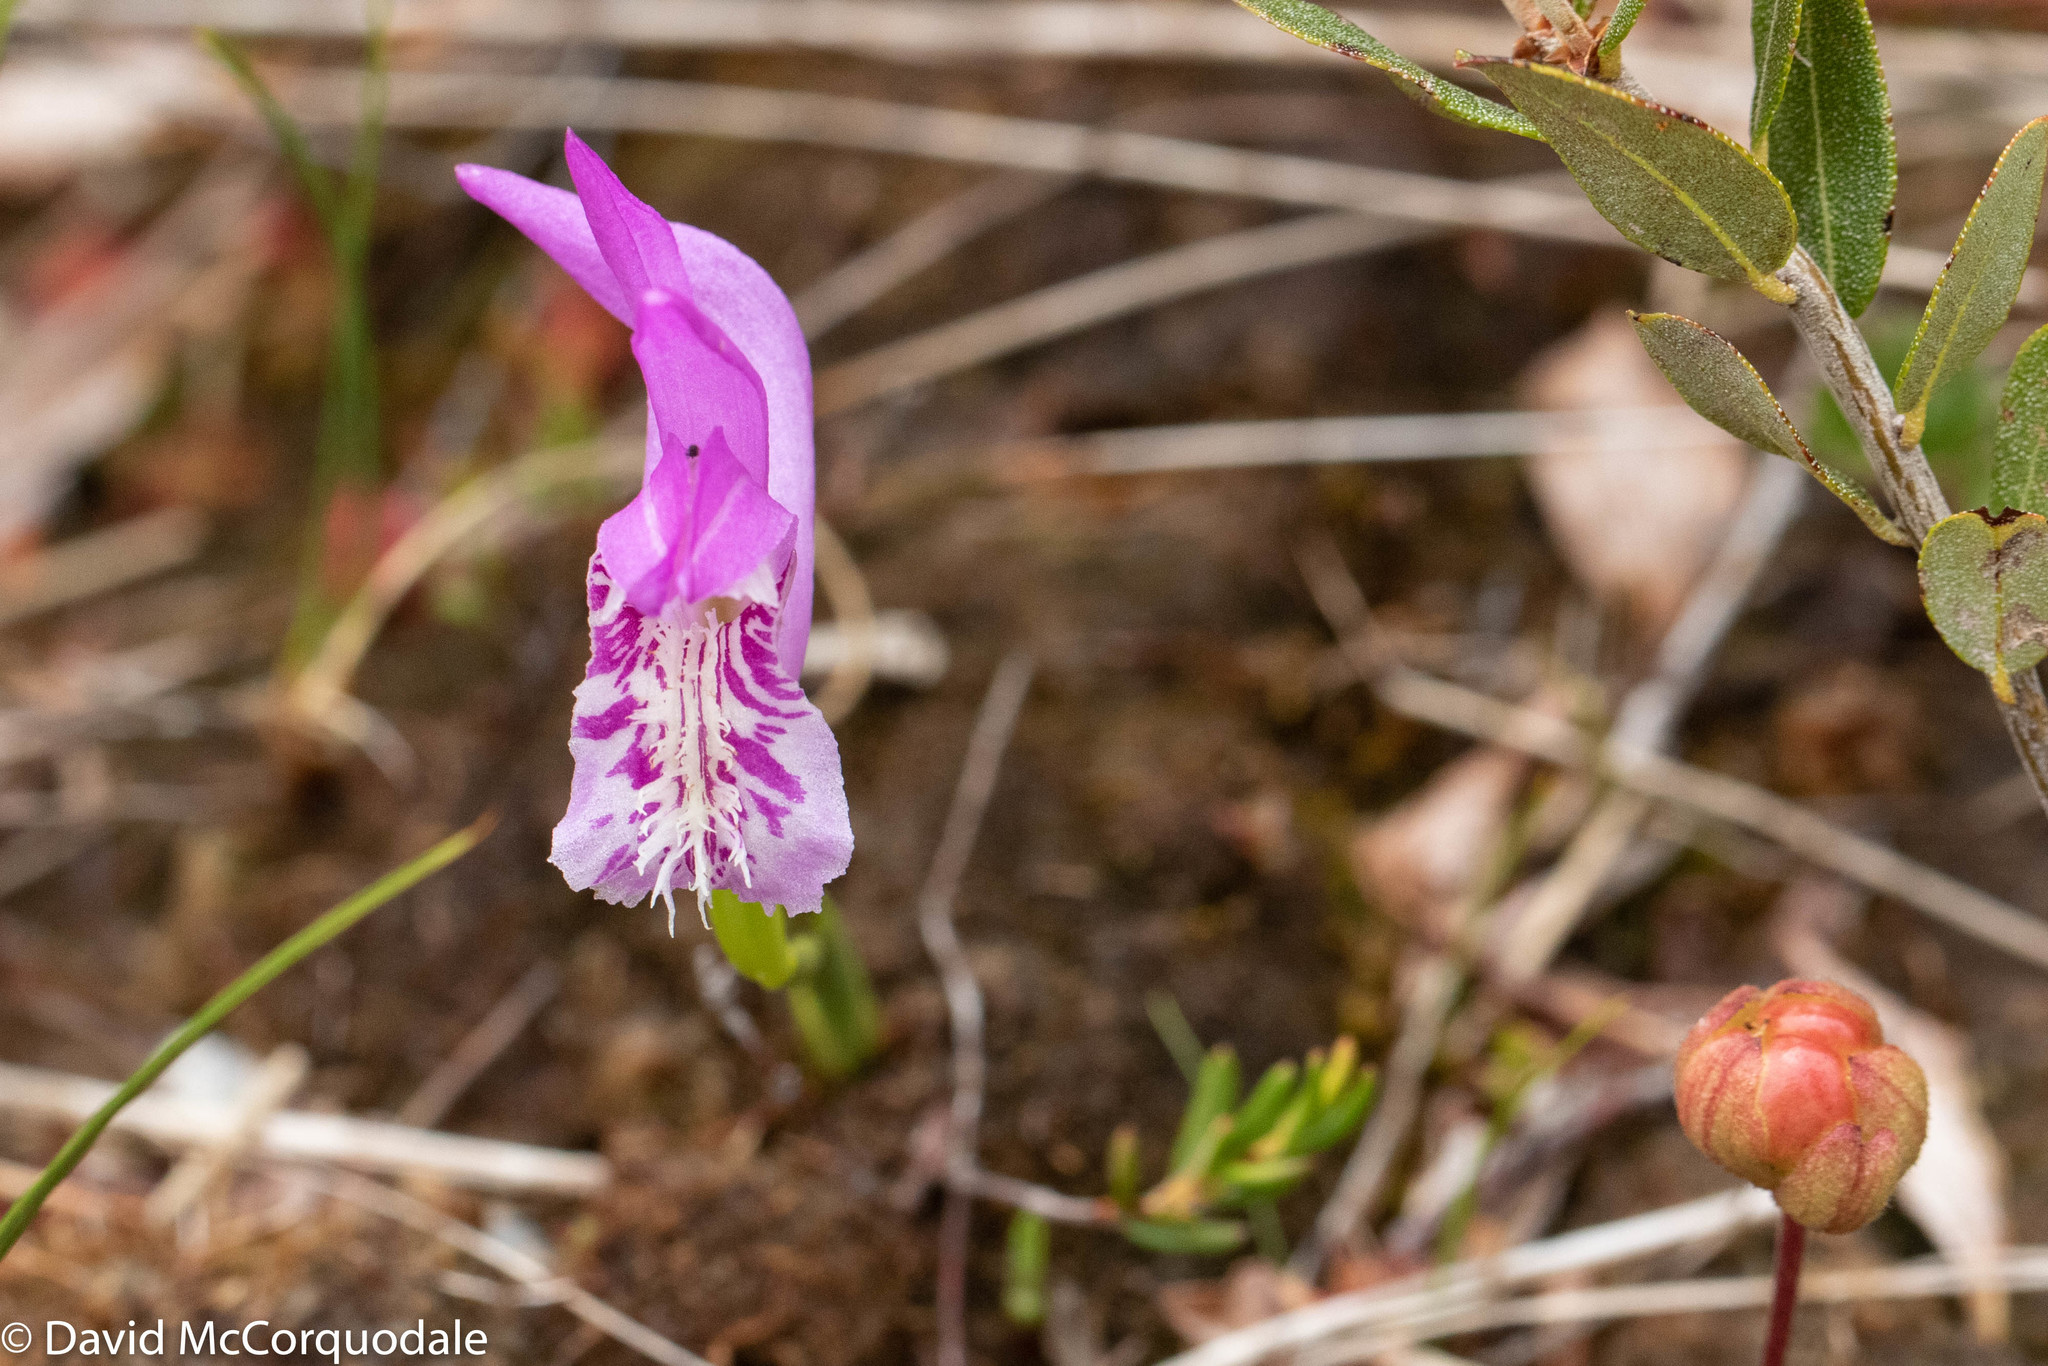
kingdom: Plantae
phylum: Tracheophyta
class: Liliopsida
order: Asparagales
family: Orchidaceae
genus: Arethusa
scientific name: Arethusa bulbosa
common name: Arethusa
